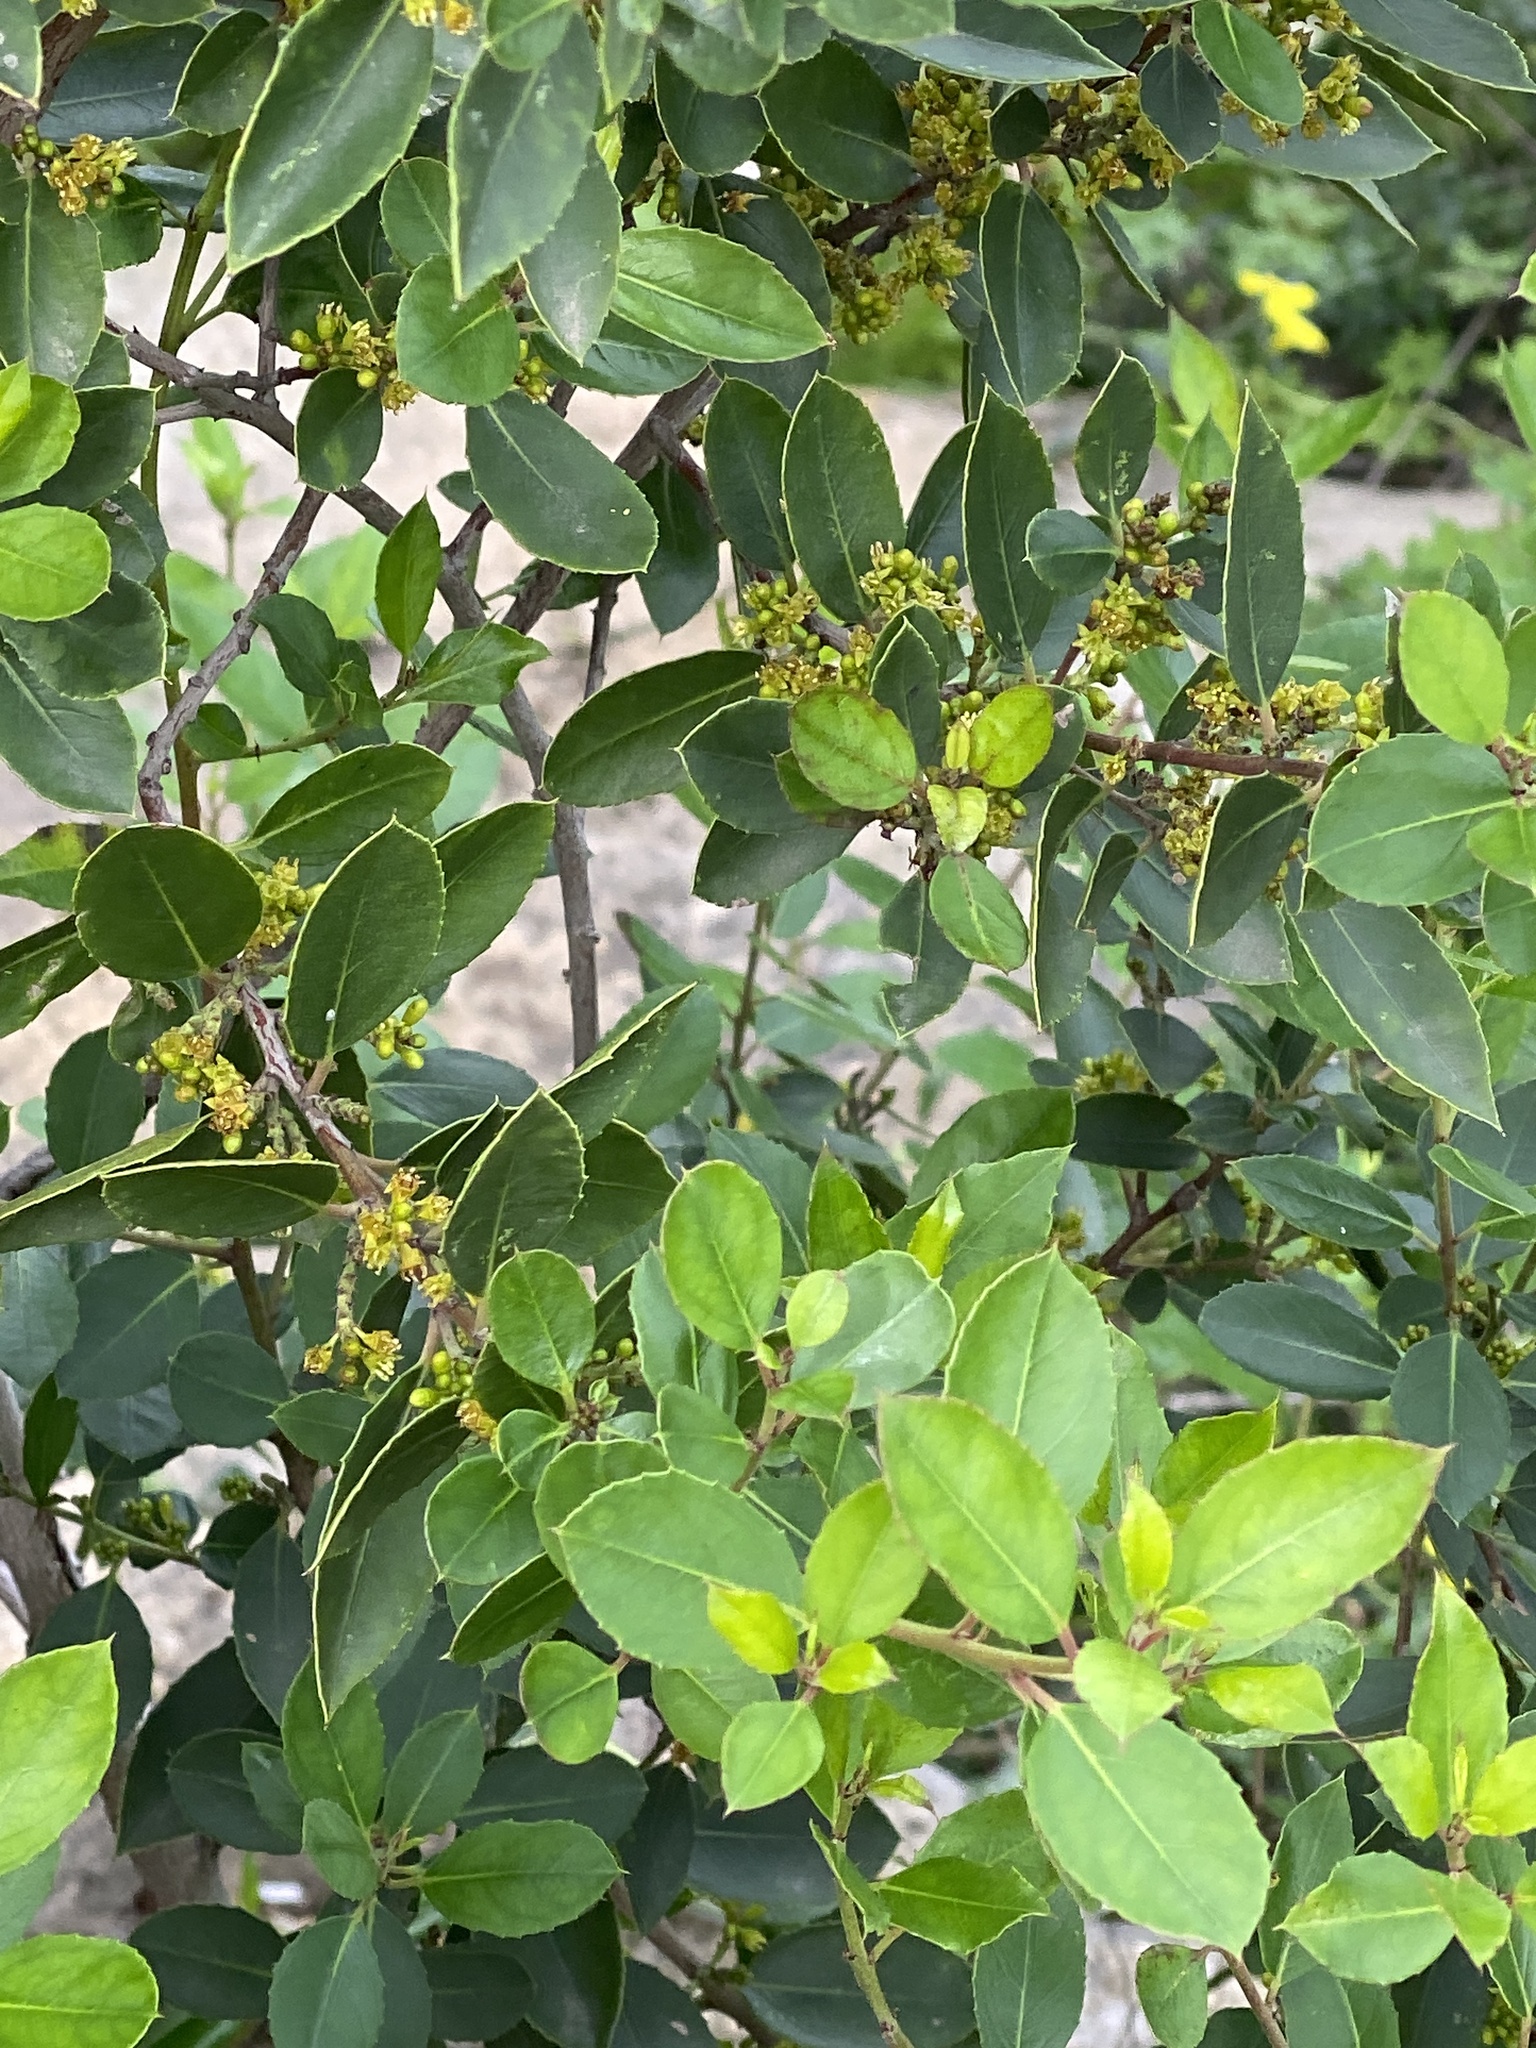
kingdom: Plantae
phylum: Tracheophyta
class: Magnoliopsida
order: Rosales
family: Rhamnaceae
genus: Rhamnus
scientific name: Rhamnus alaternus
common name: Mediterranean buckthorn
